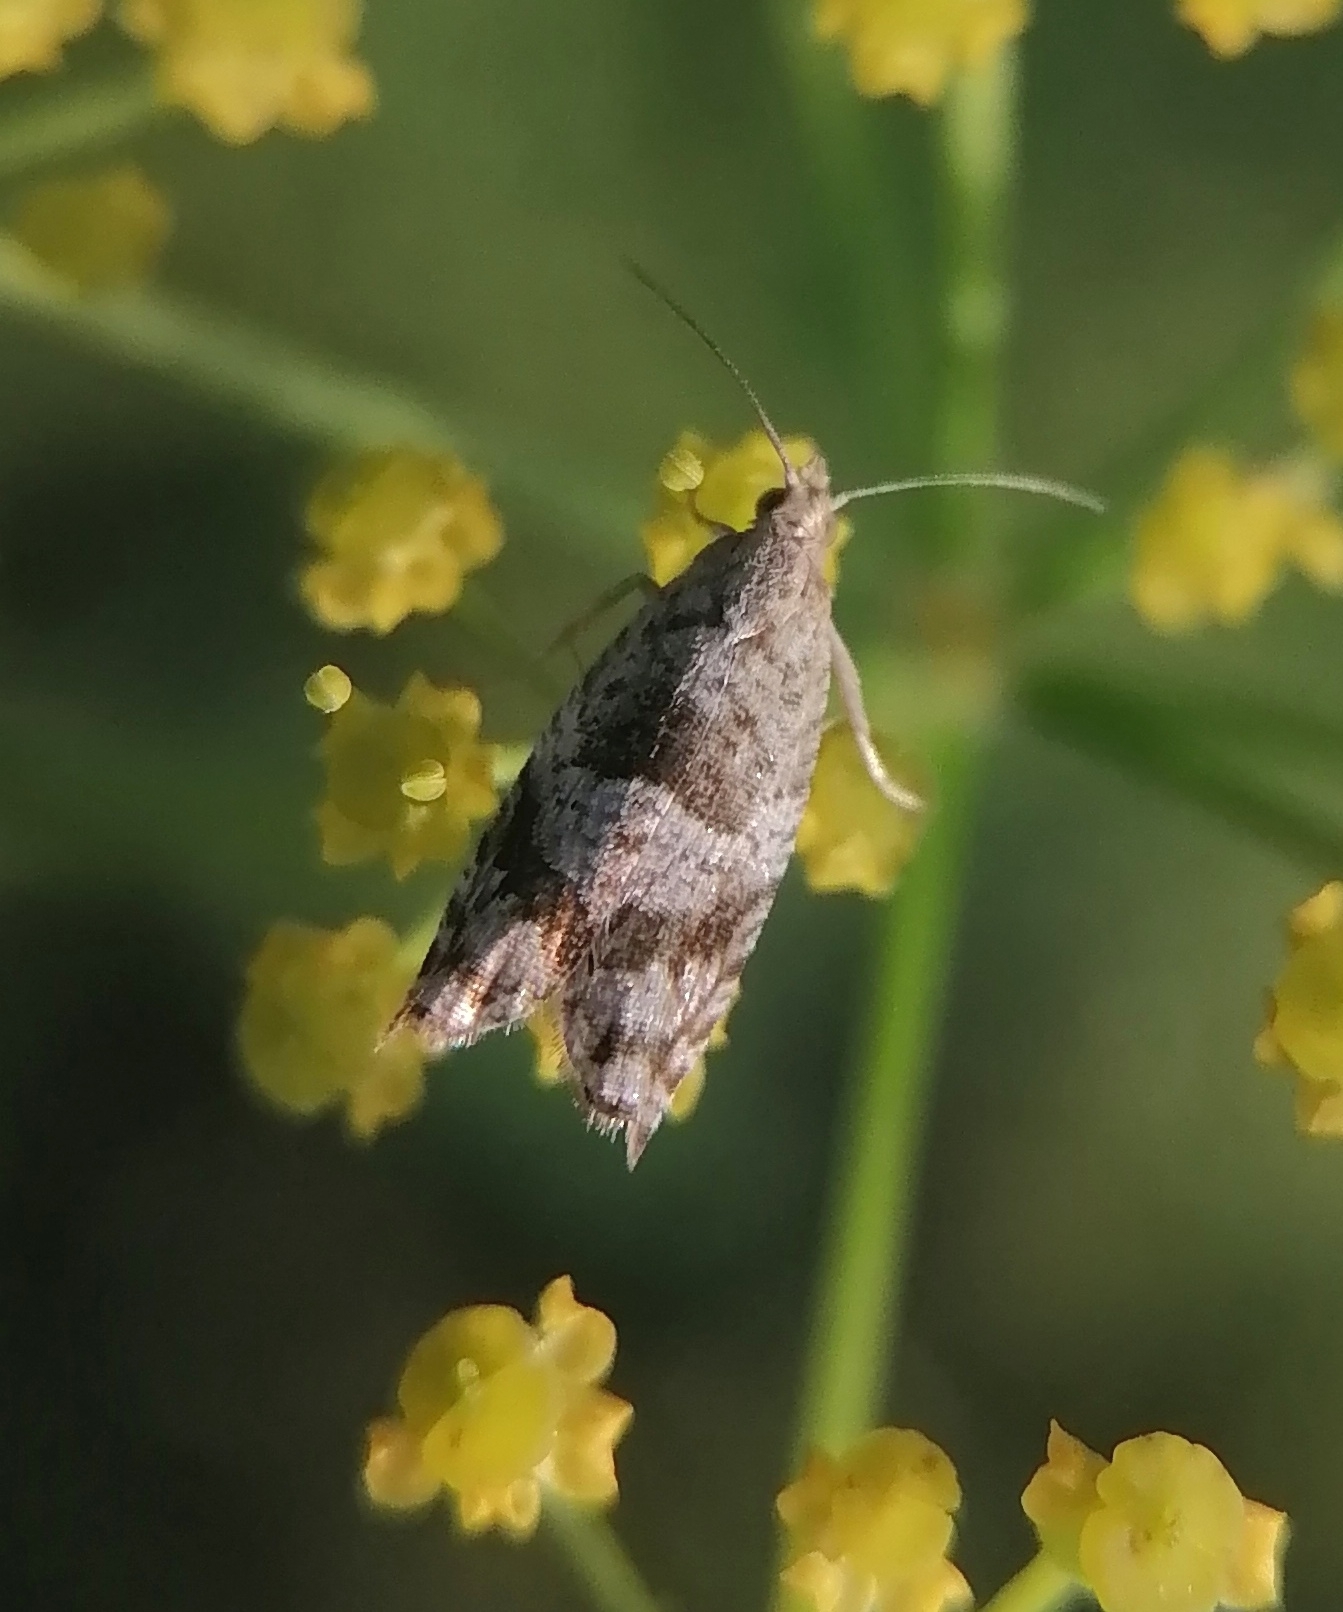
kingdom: Animalia
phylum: Arthropoda
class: Insecta
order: Lepidoptera
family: Tortricidae
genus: Rhopobota
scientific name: Rhopobota naevana
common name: Blackheaded fireworm, holly tortrix
